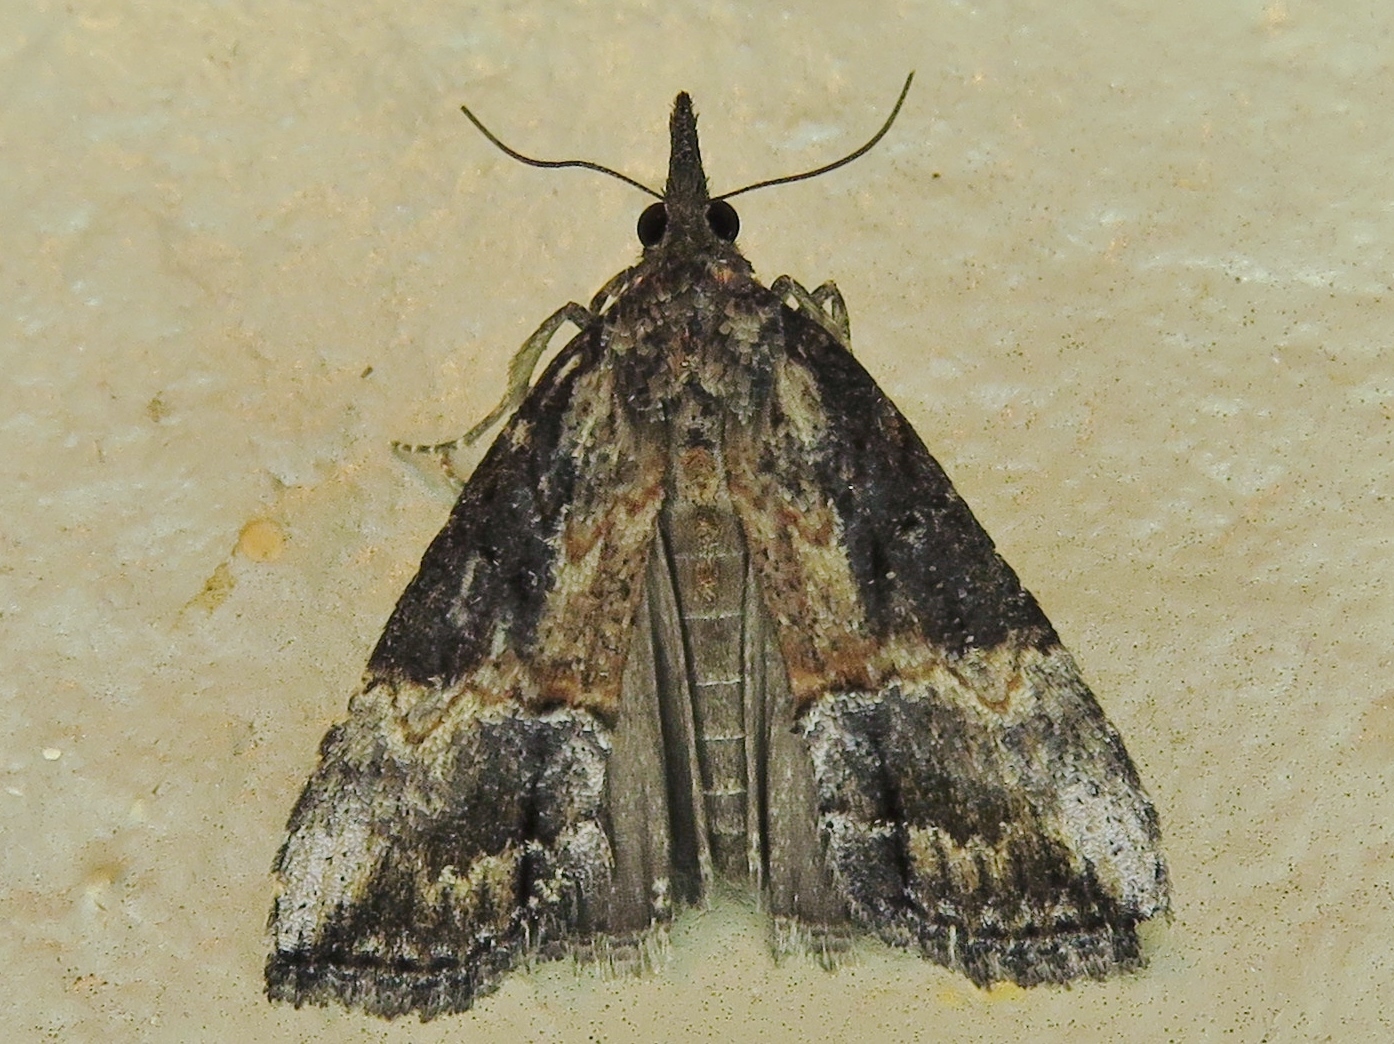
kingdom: Animalia
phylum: Arthropoda
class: Insecta
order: Lepidoptera
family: Erebidae
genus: Hypena
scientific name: Hypena scabra
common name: Green cloverworm
